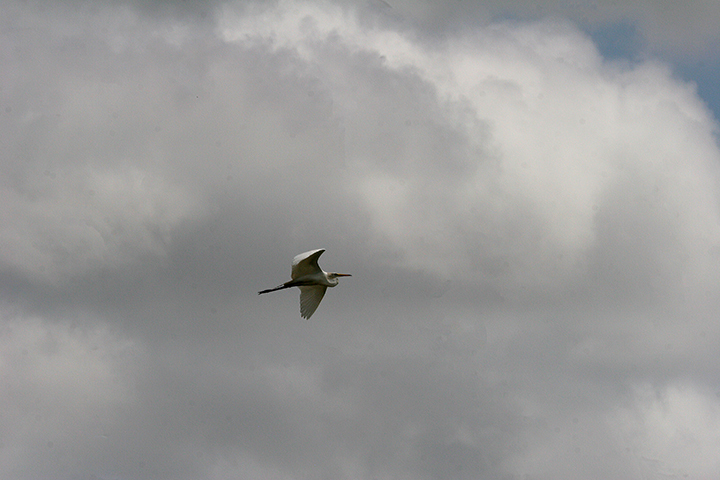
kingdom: Animalia
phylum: Chordata
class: Aves
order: Pelecaniformes
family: Ardeidae
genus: Ardea
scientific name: Ardea alba
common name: Great egret
